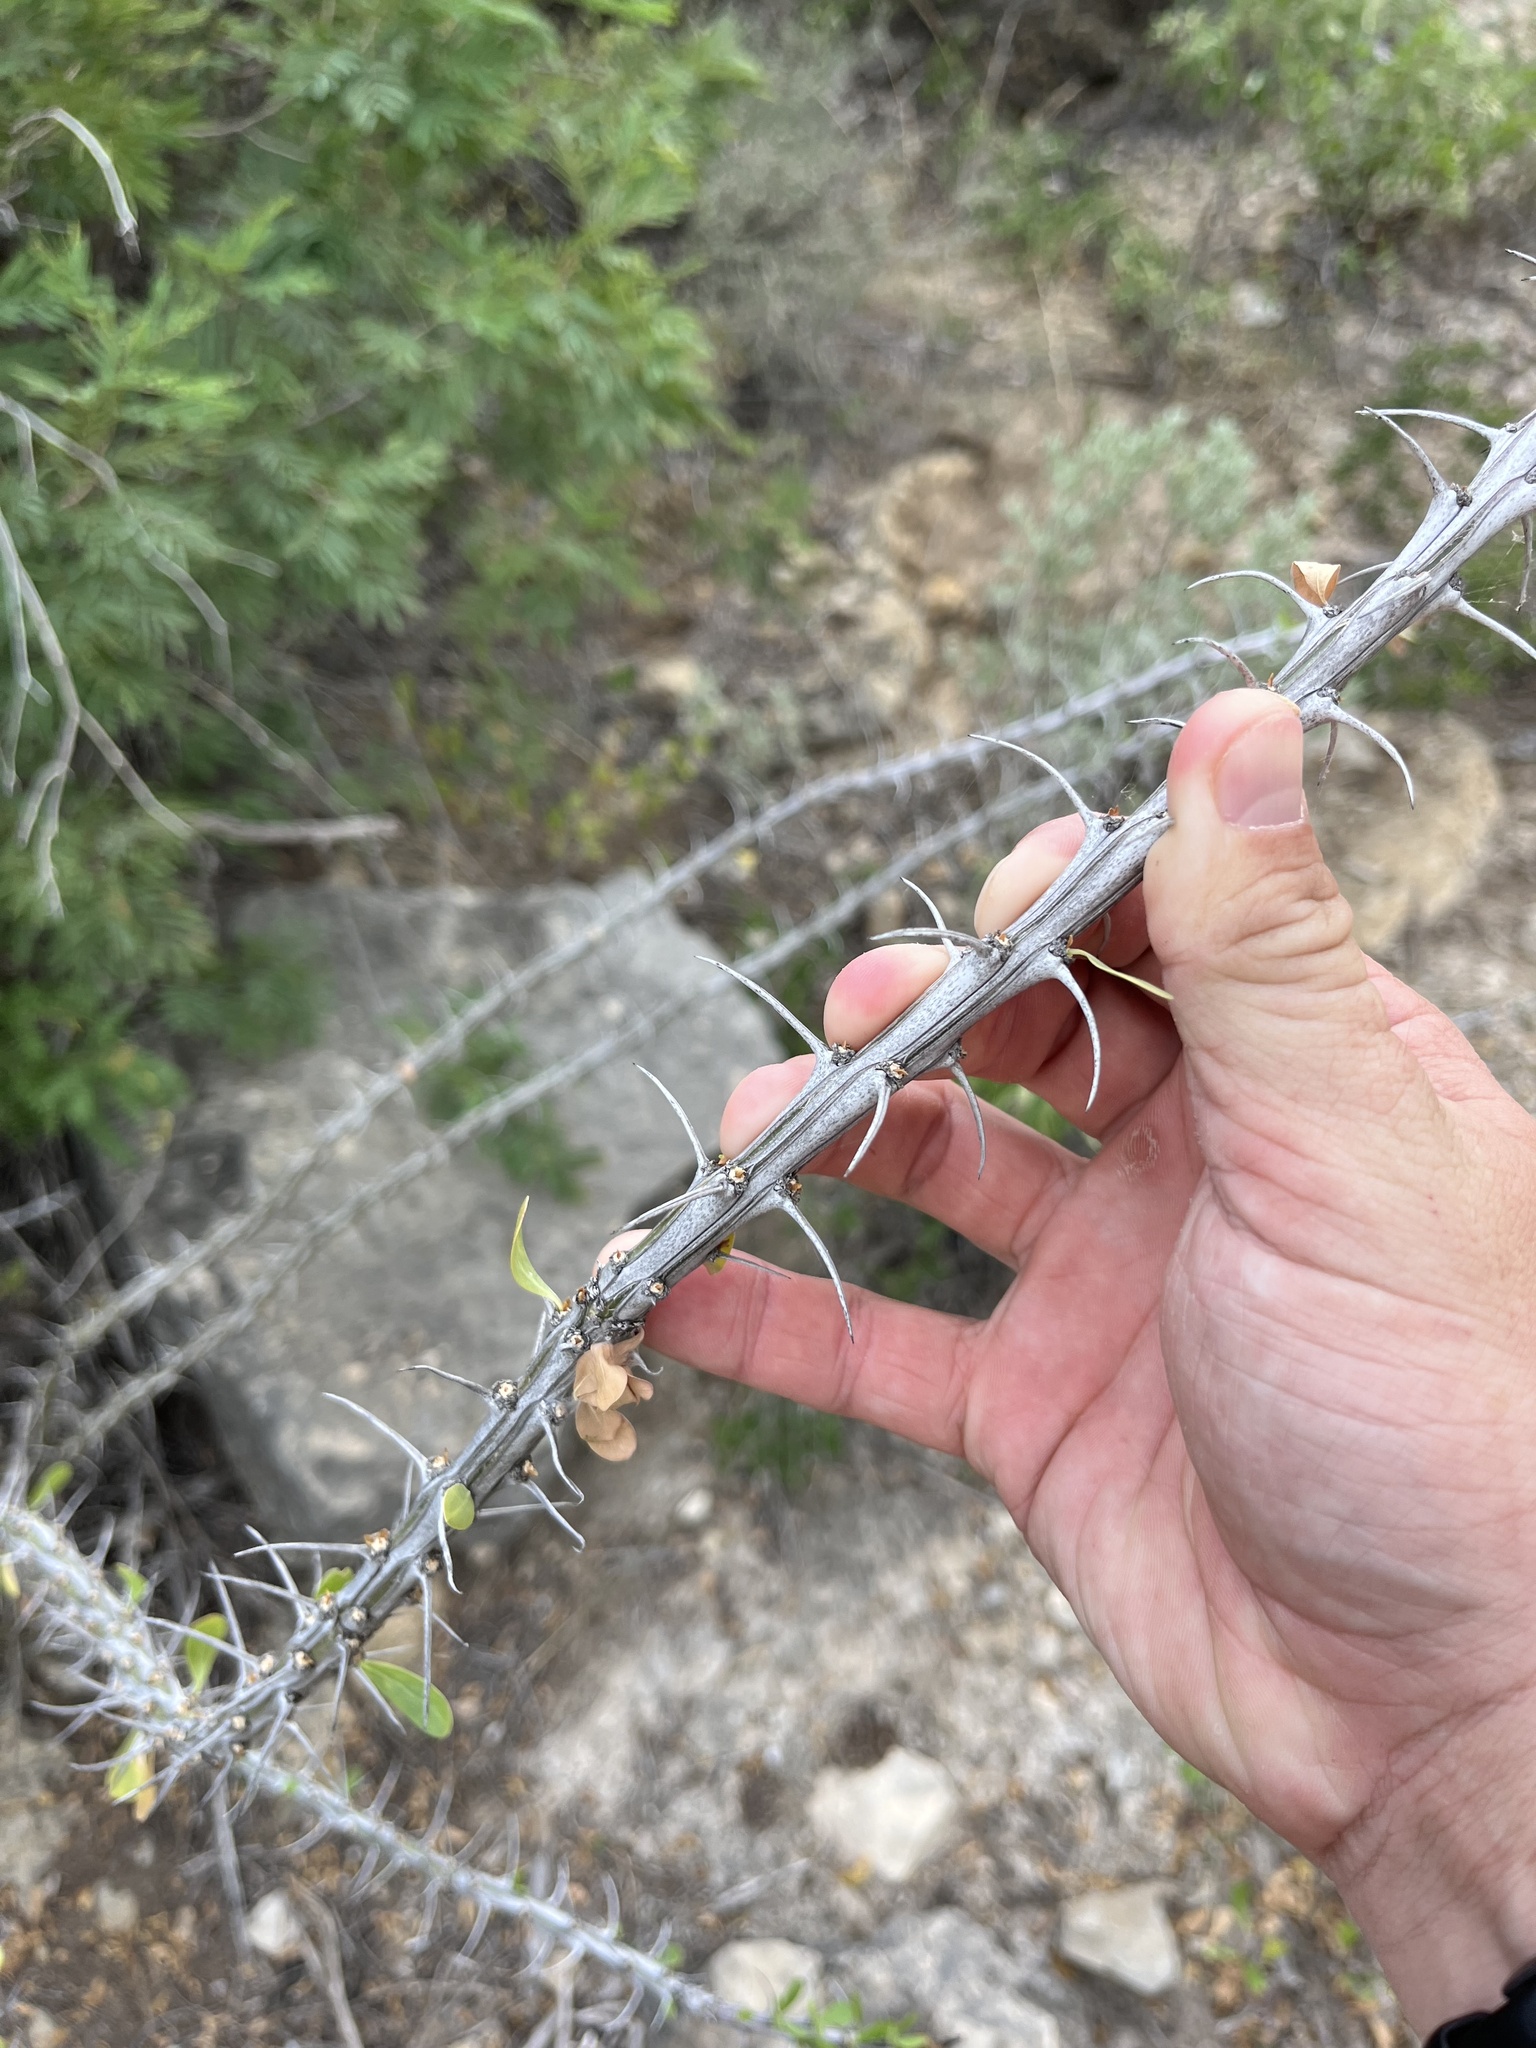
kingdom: Plantae
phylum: Tracheophyta
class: Magnoliopsida
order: Ericales
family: Fouquieriaceae
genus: Fouquieria
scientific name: Fouquieria splendens
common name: Vine-cactus
